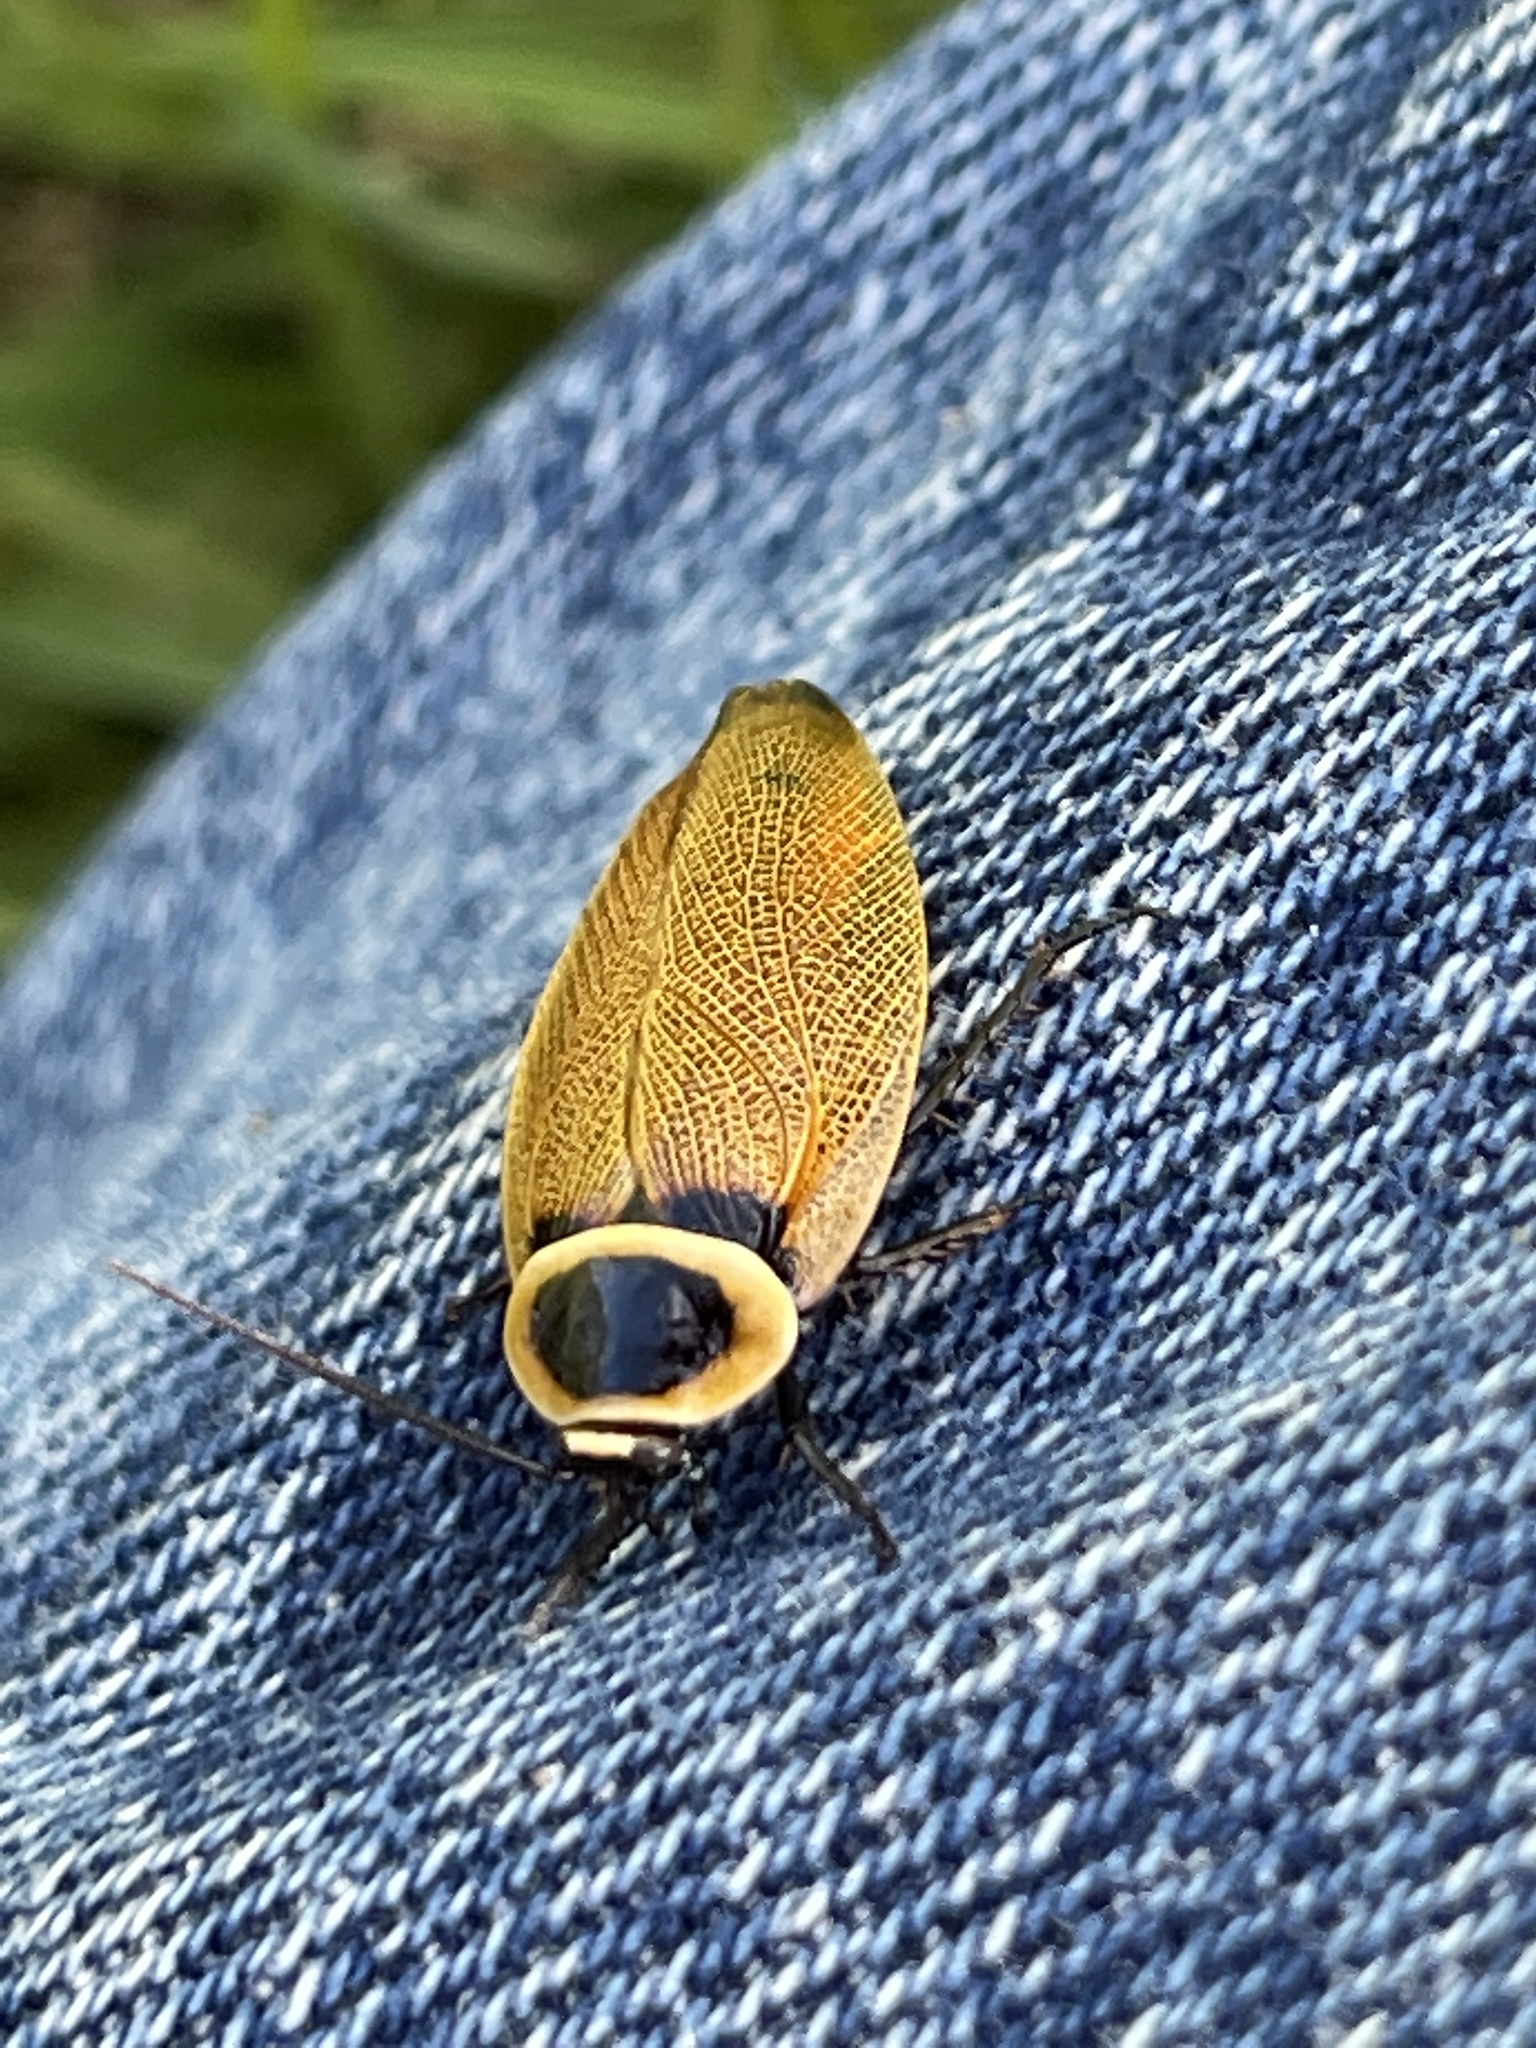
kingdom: Animalia
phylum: Arthropoda
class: Insecta
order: Blattodea
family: Ectobiidae
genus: Ellipsidion
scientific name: Ellipsidion australe
